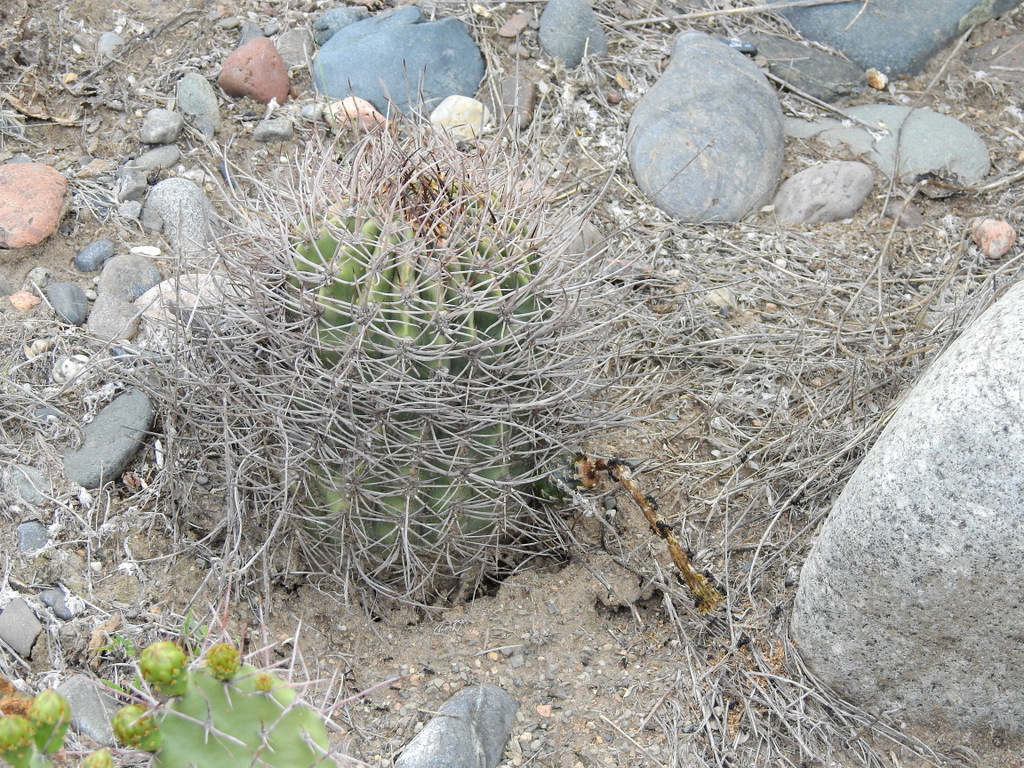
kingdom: Plantae
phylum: Tracheophyta
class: Magnoliopsida
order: Caryophyllales
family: Cactaceae
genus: Acanthocalycium
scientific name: Acanthocalycium leucanthum
